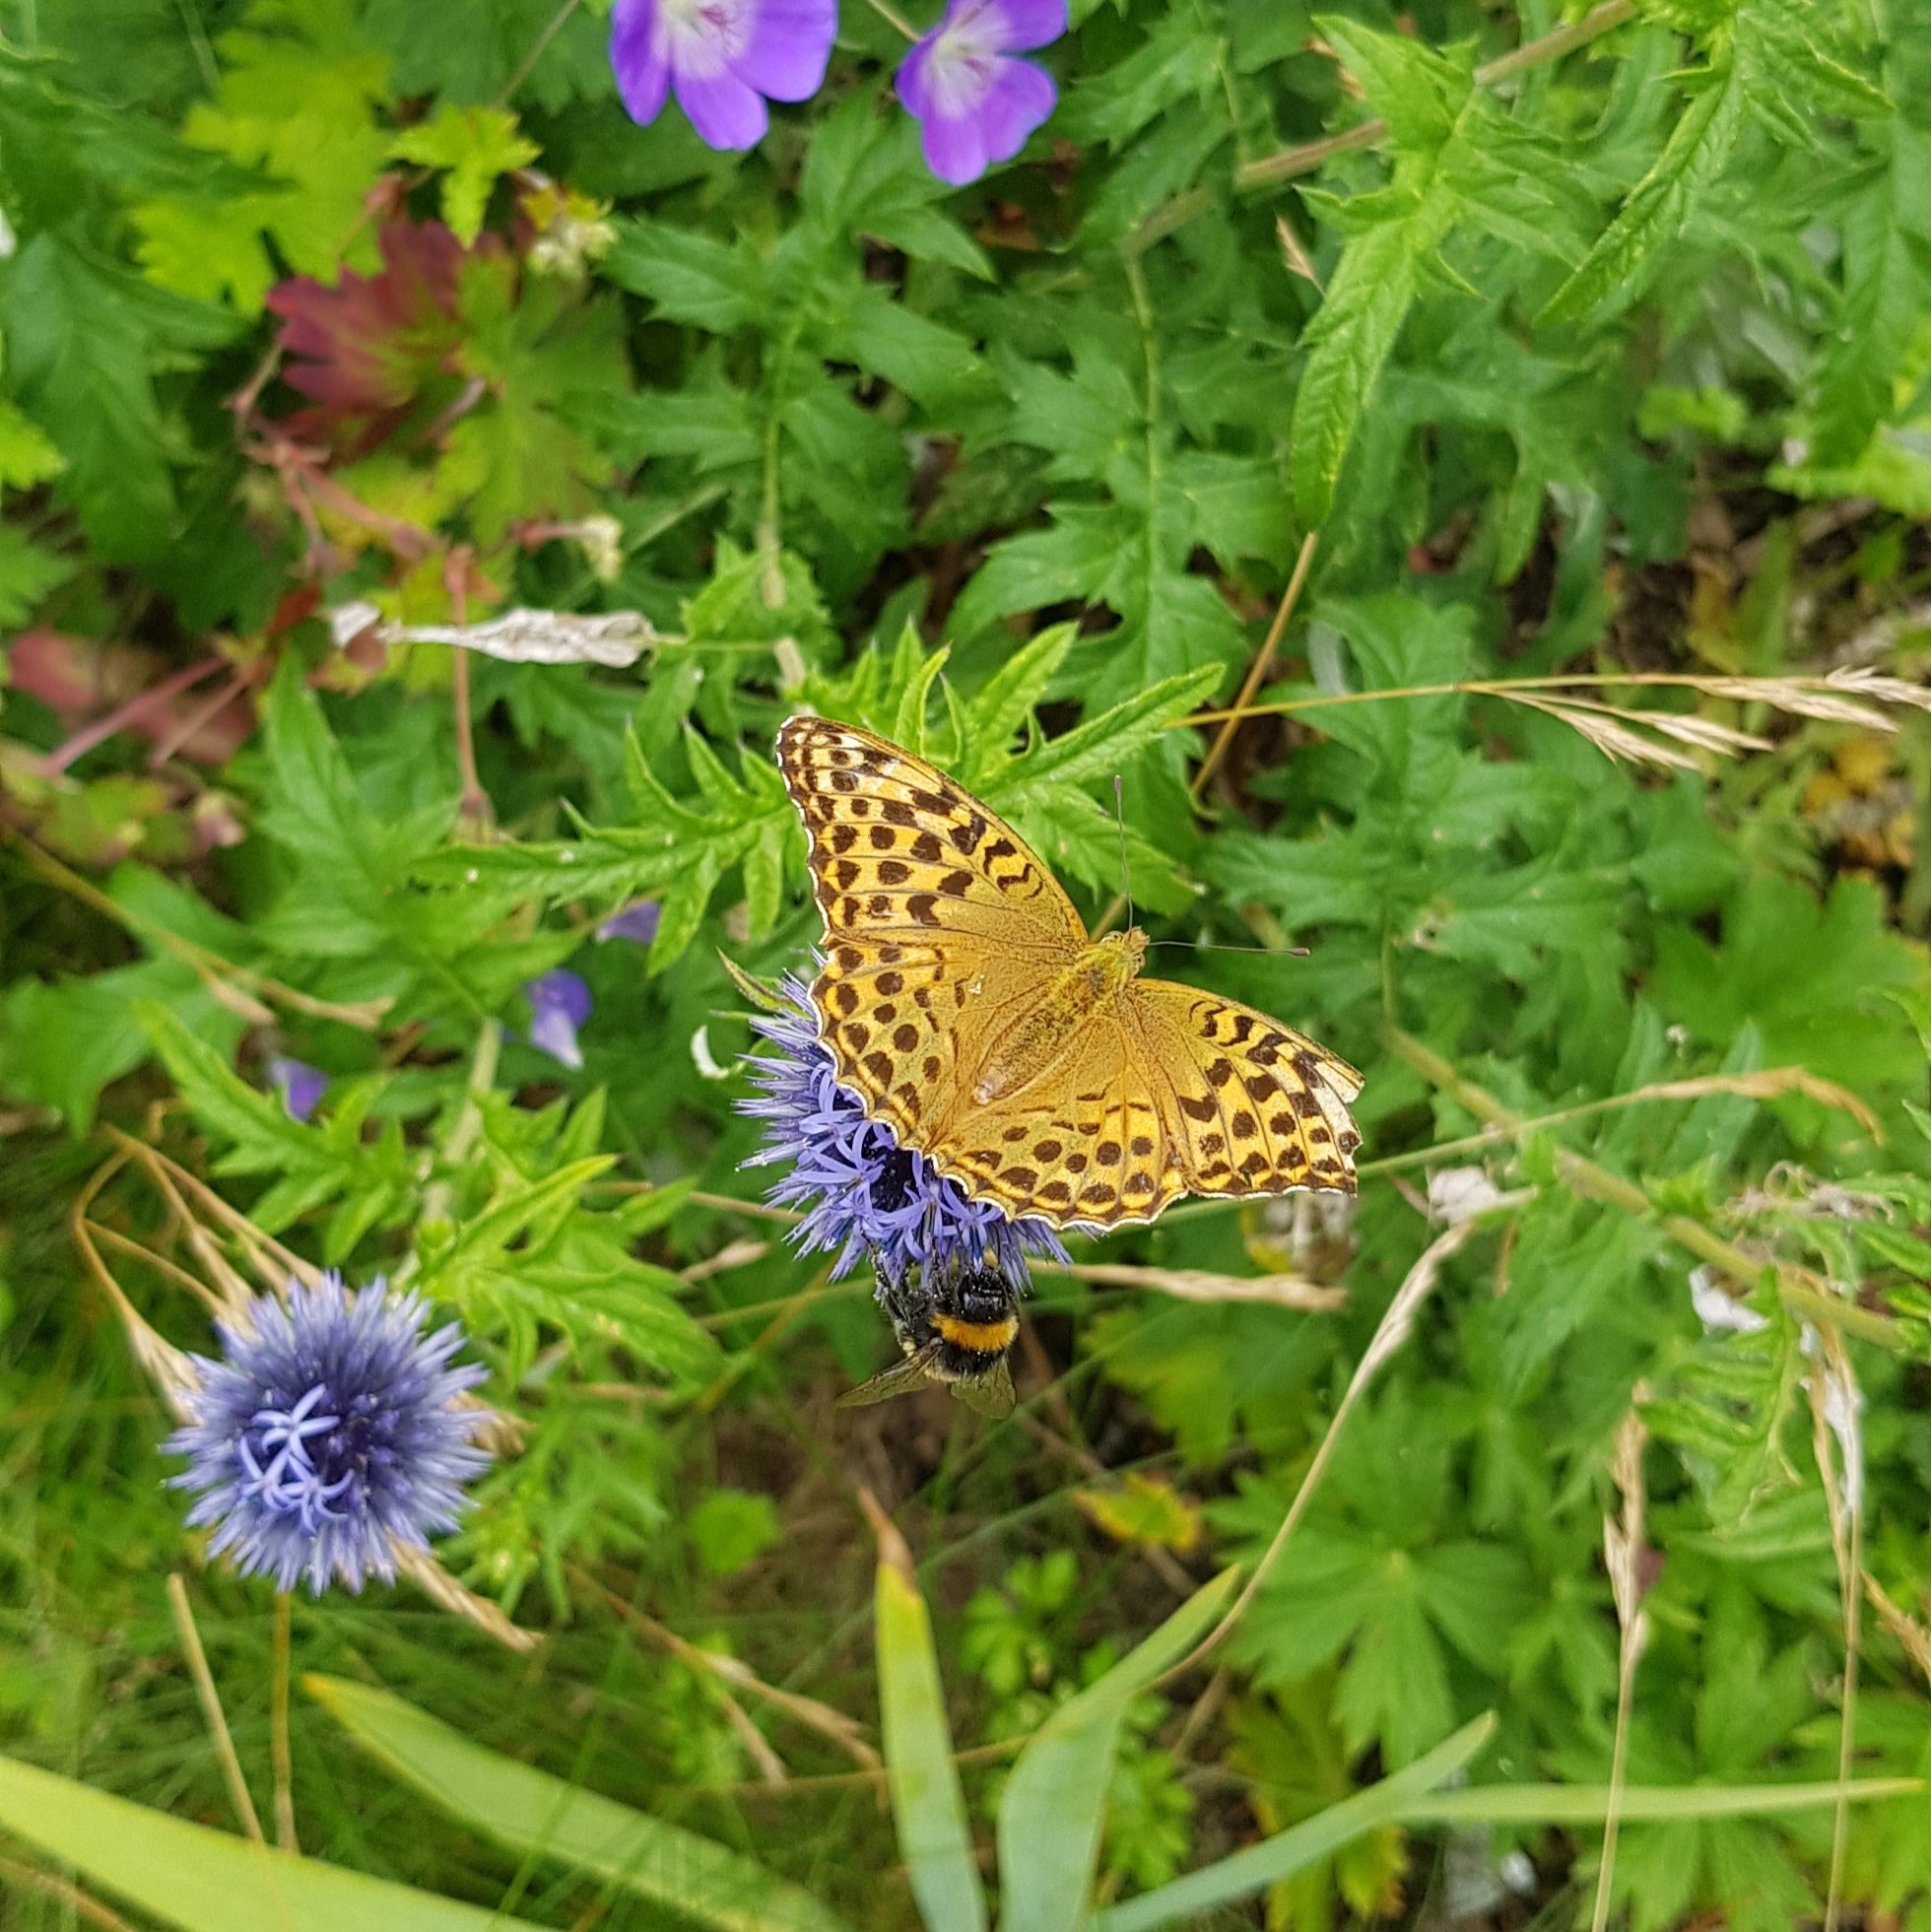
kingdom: Animalia
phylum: Arthropoda
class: Insecta
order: Lepidoptera
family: Nymphalidae
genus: Argynnis
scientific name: Argynnis paphia
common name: Silver-washed fritillary
